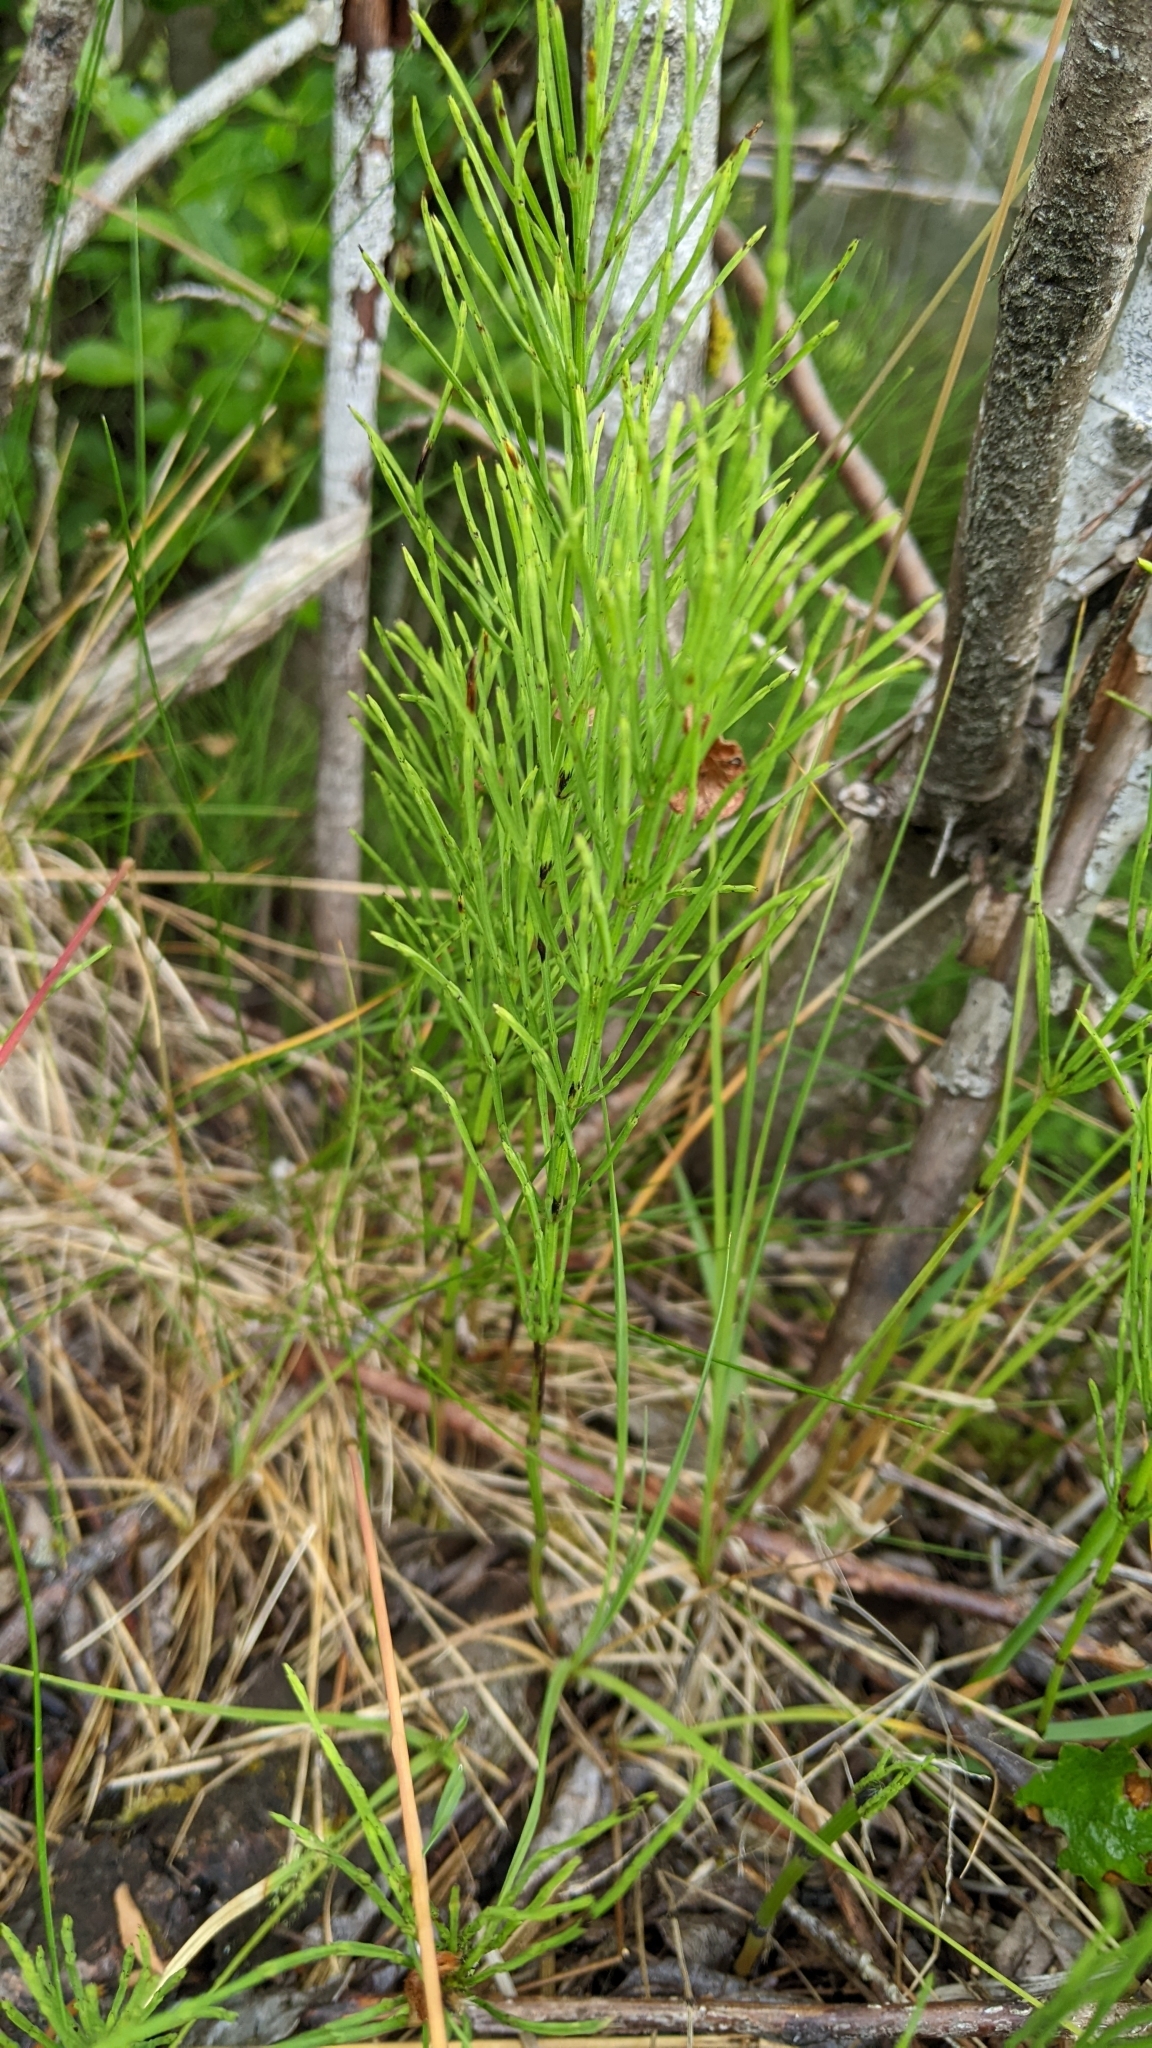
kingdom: Plantae
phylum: Tracheophyta
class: Polypodiopsida
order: Equisetales
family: Equisetaceae
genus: Equisetum
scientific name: Equisetum arvense
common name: Field horsetail
